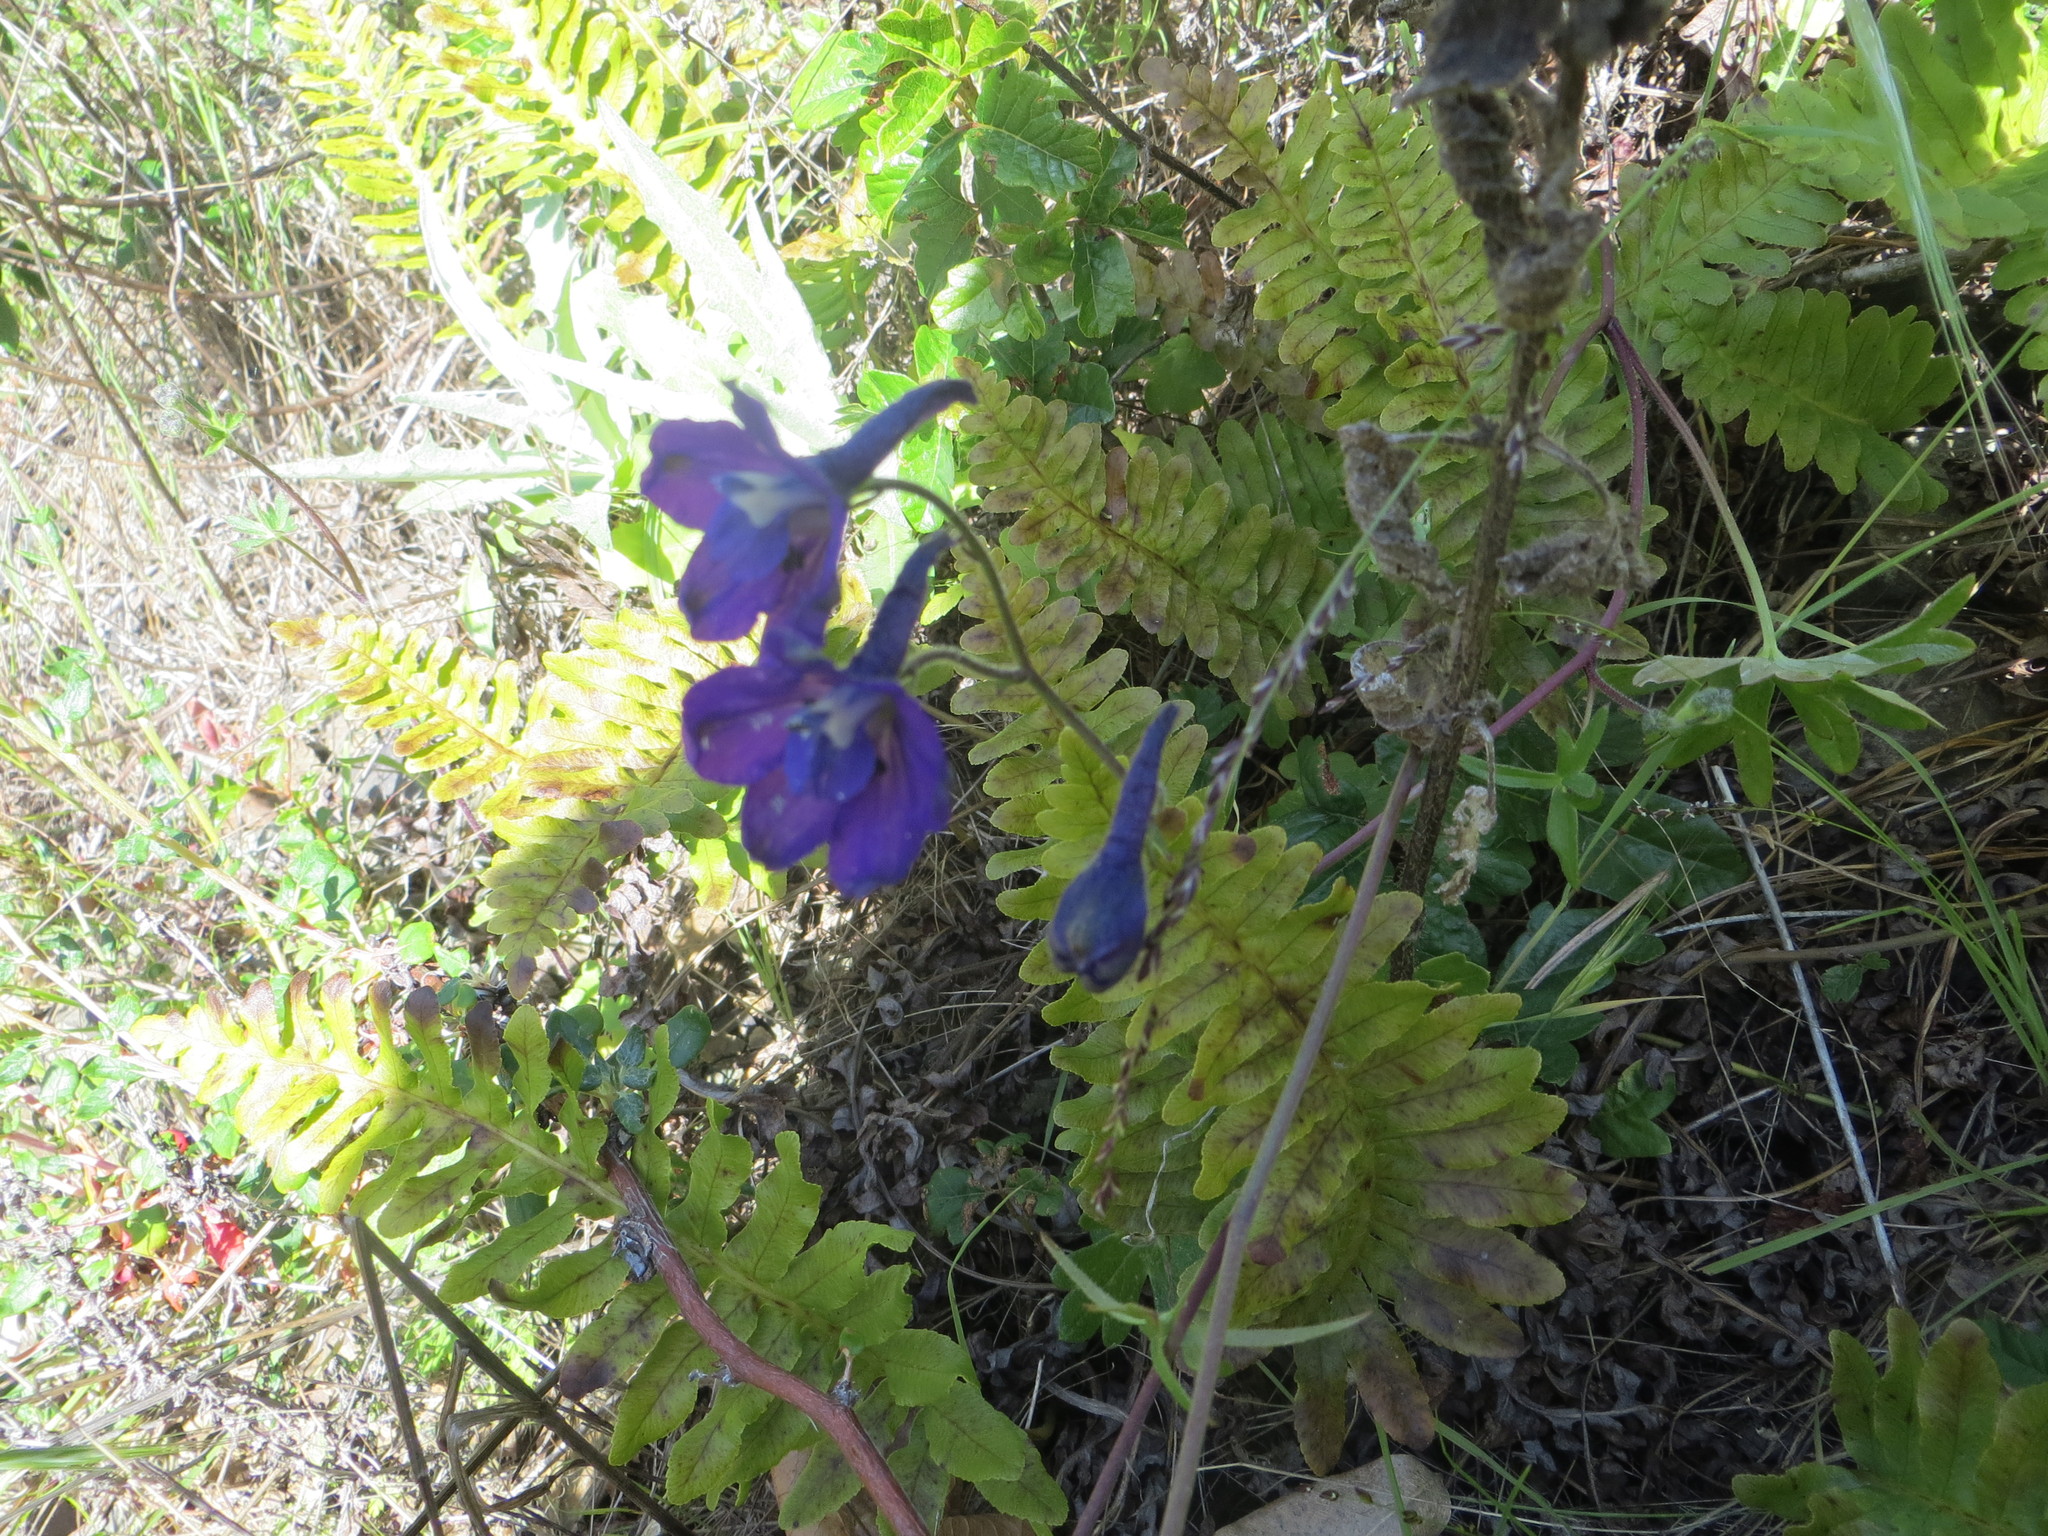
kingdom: Plantae
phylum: Tracheophyta
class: Magnoliopsida
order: Ranunculales
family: Ranunculaceae
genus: Delphinium
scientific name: Delphinium hutchinsoniae
